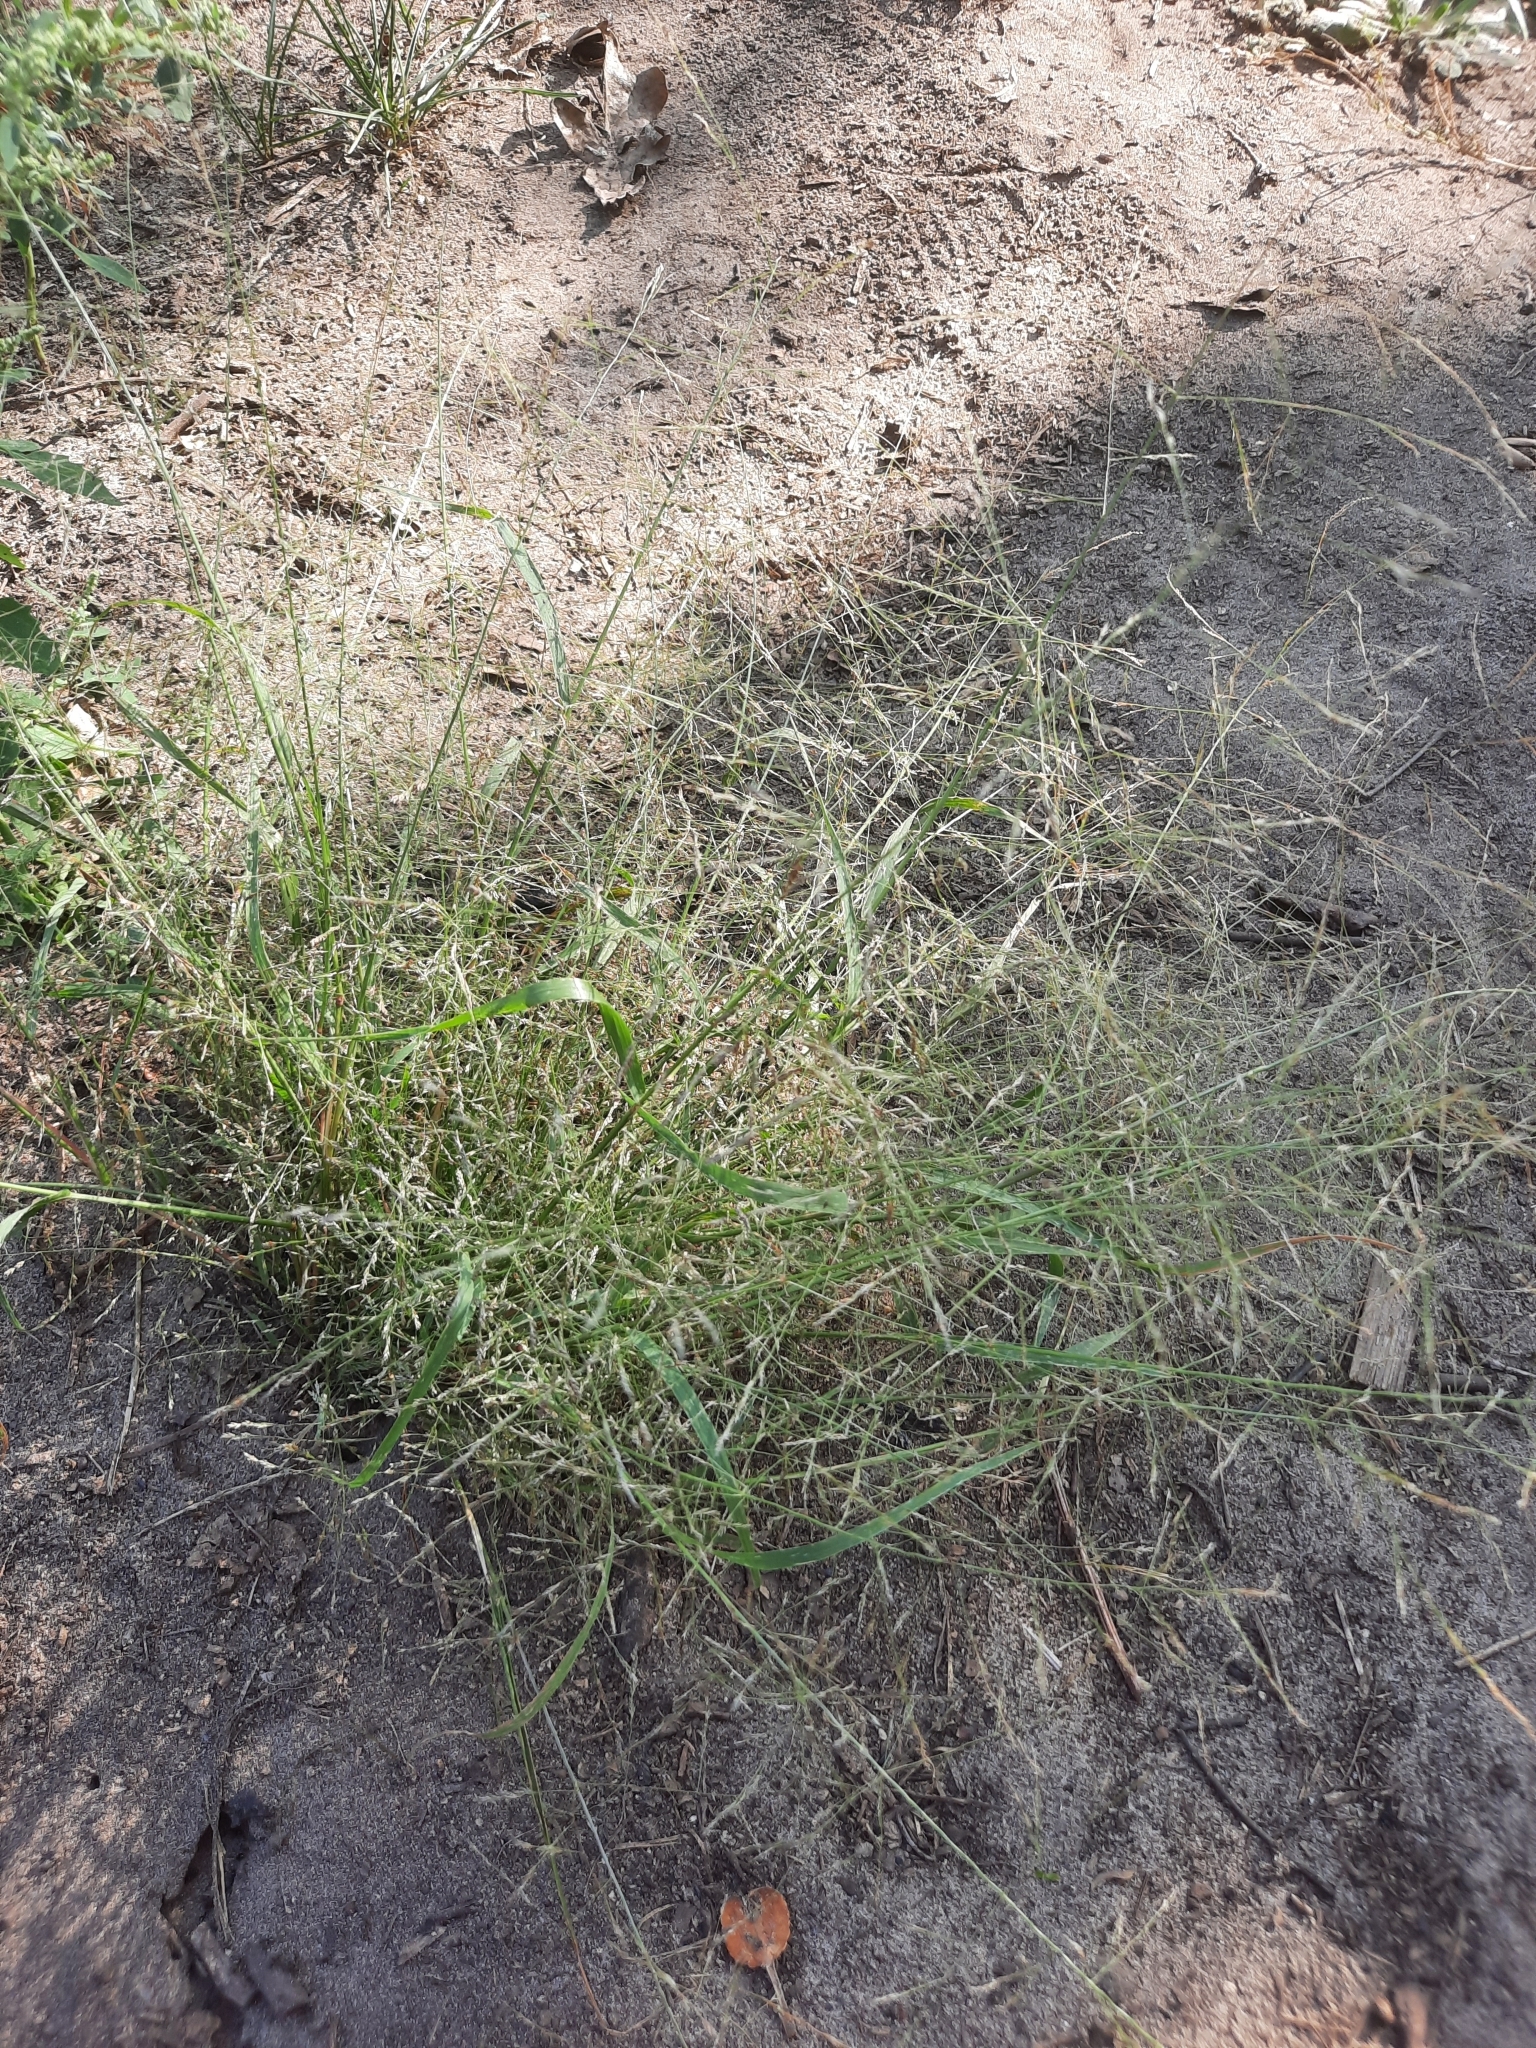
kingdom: Plantae
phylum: Tracheophyta
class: Liliopsida
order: Poales
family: Poaceae
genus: Puccinellia
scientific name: Puccinellia distans
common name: Weeping alkaligrass
